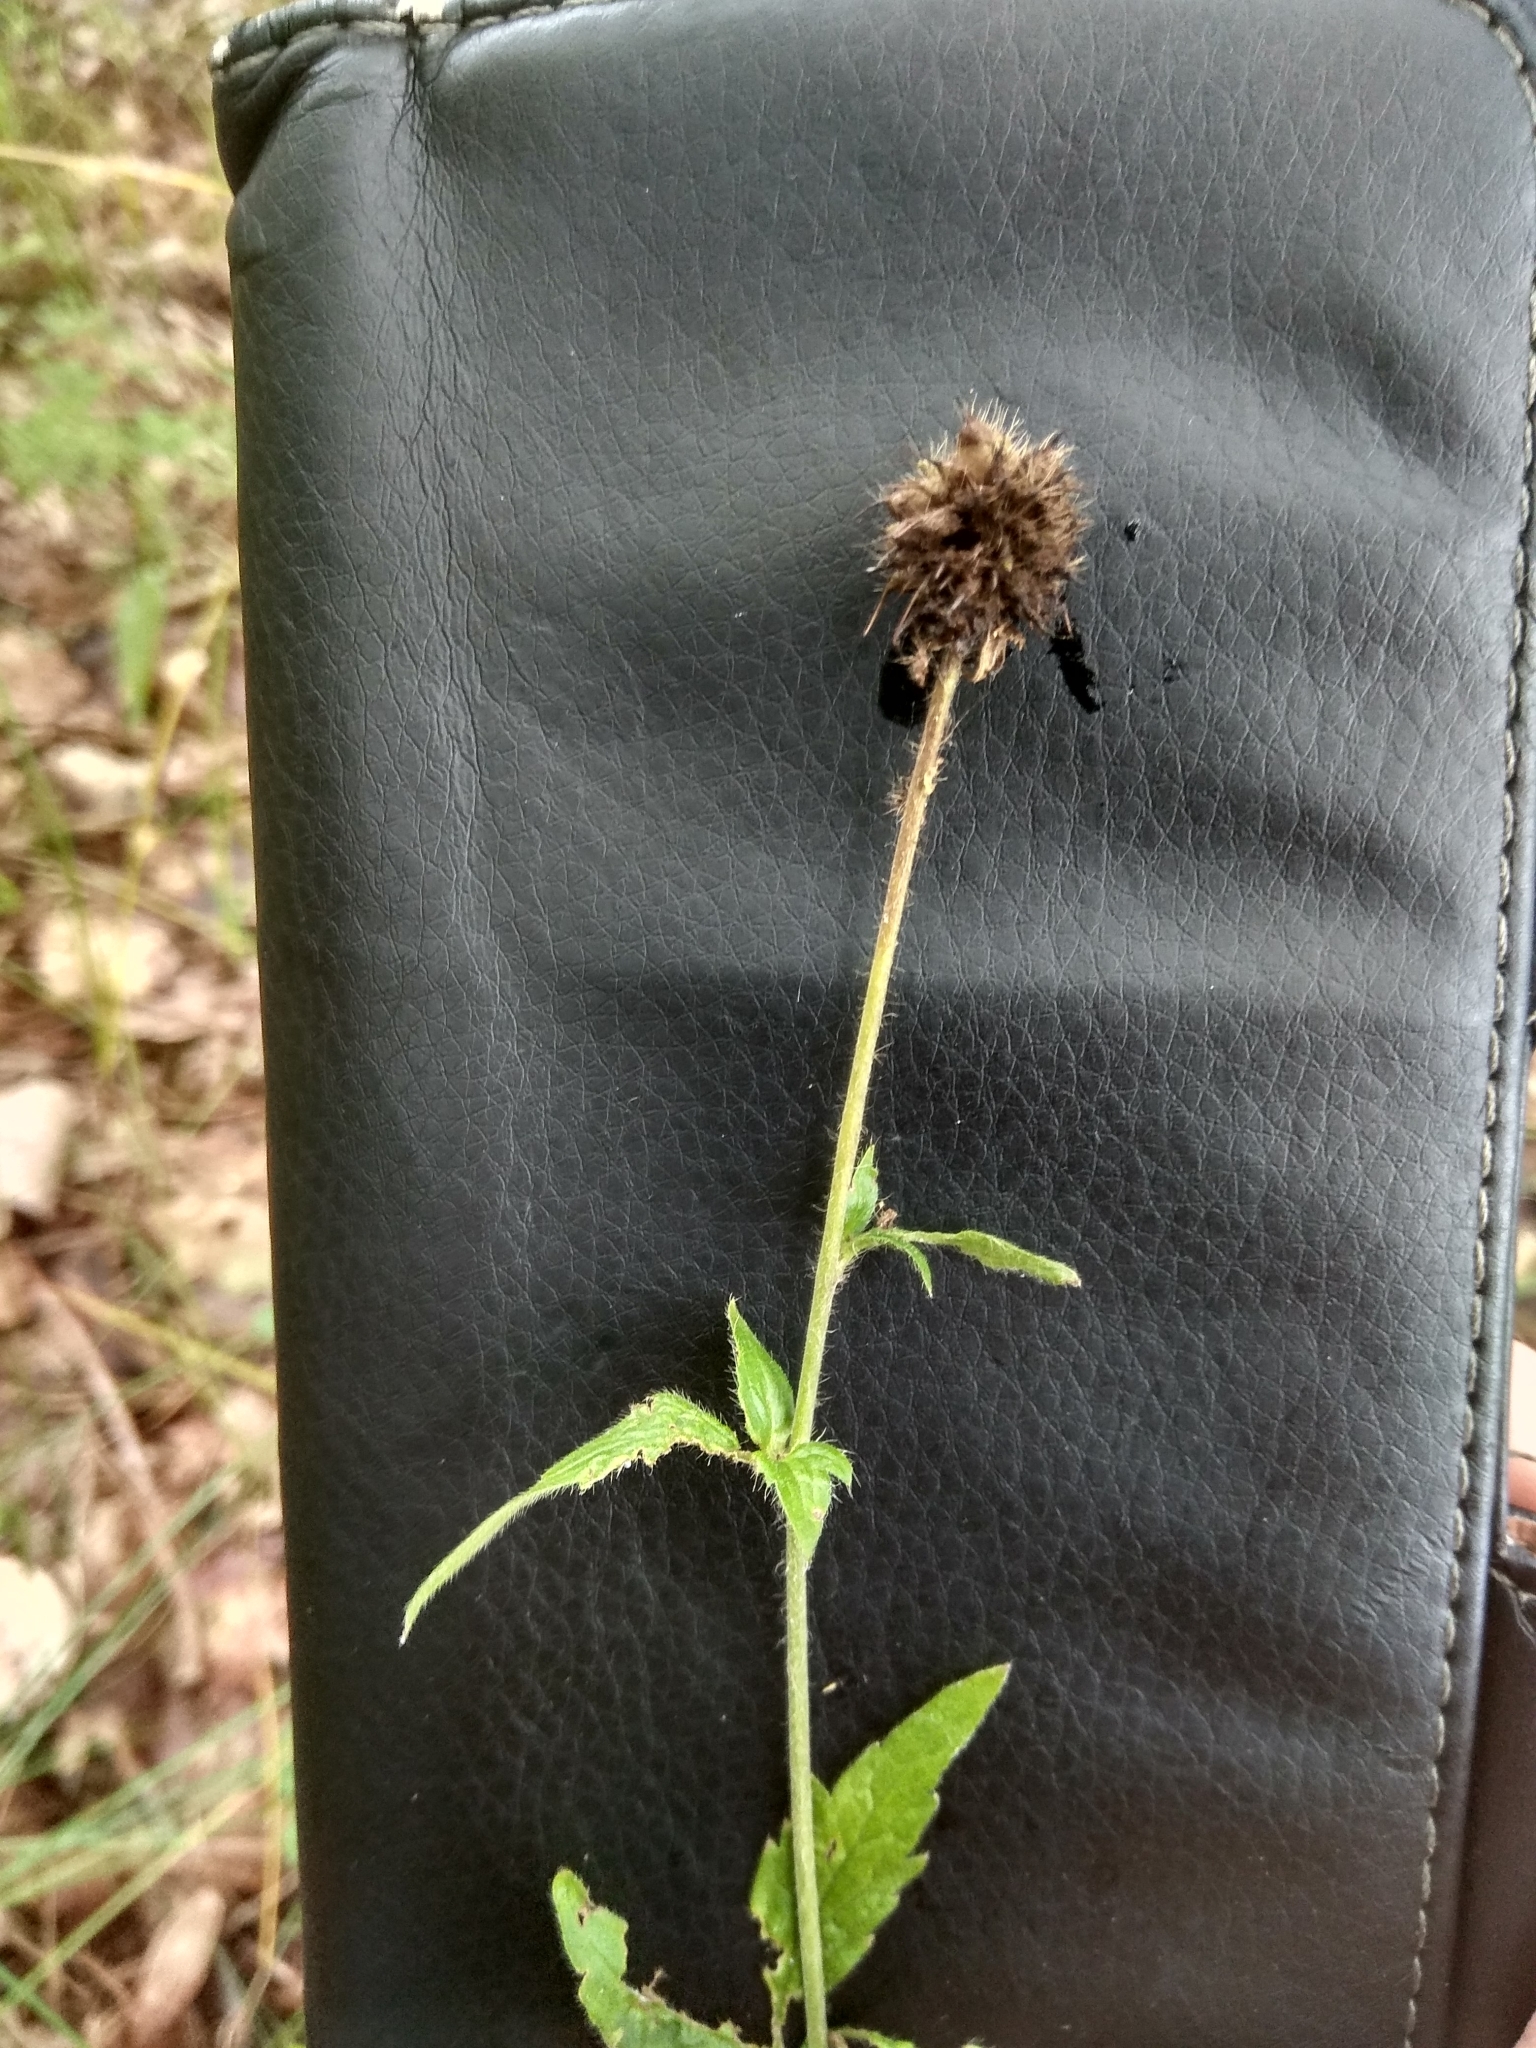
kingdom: Plantae
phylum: Tracheophyta
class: Magnoliopsida
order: Rosales
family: Rosaceae
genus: Geum
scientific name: Geum urbanum
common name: Wood avens
